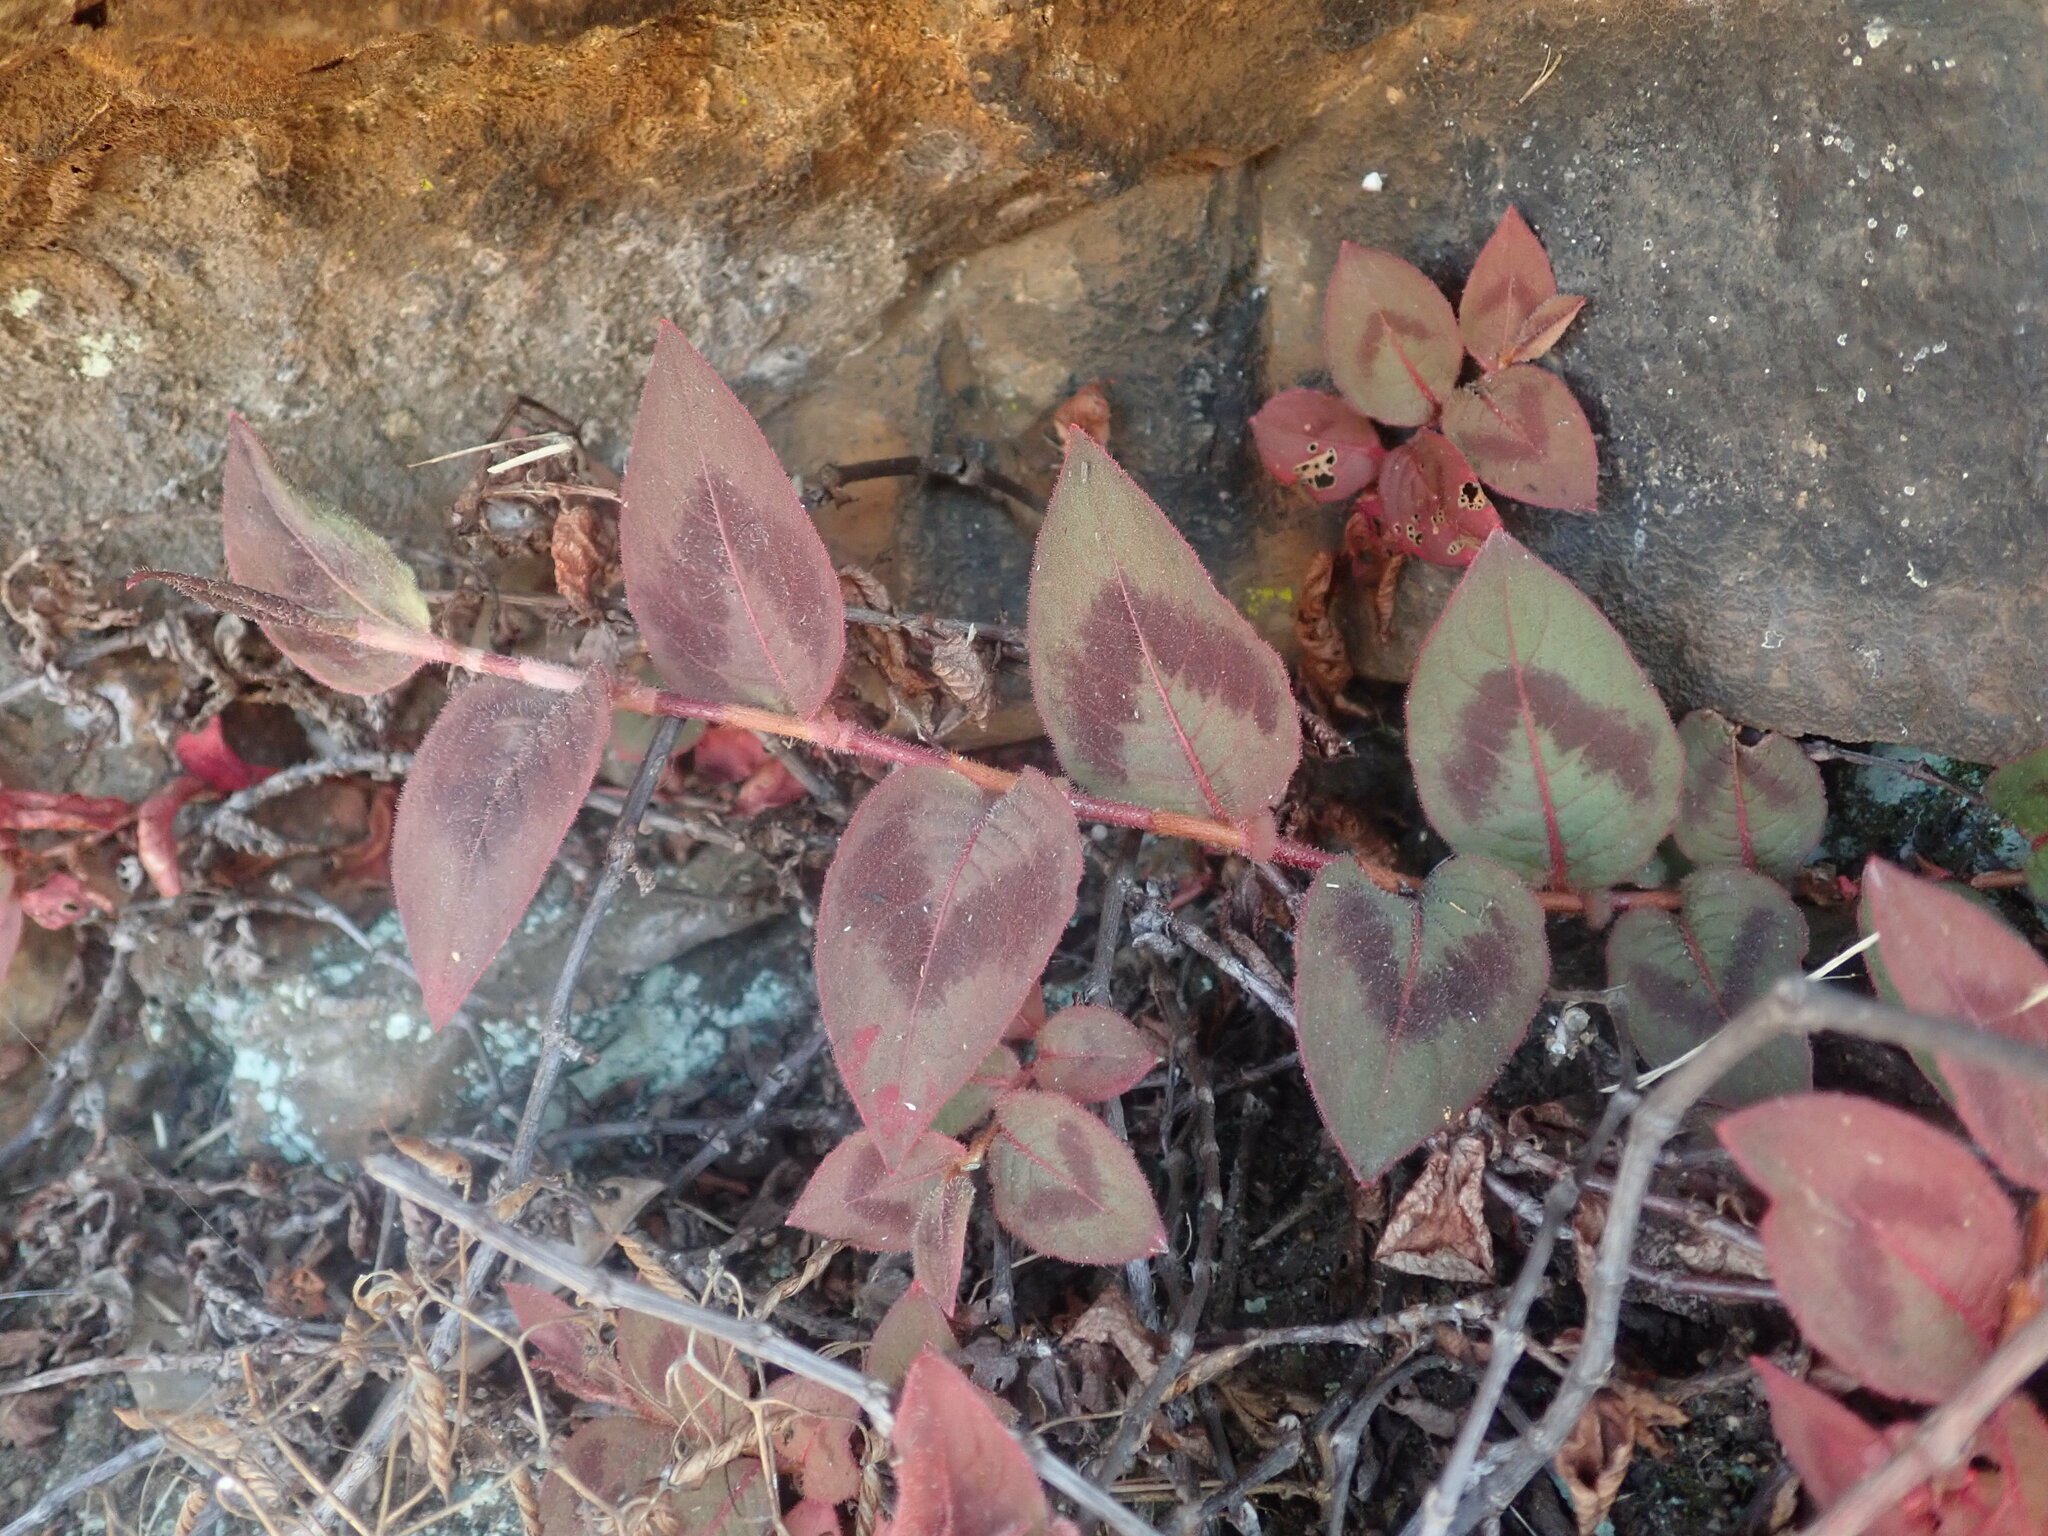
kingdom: Plantae
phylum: Tracheophyta
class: Magnoliopsida
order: Caryophyllales
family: Polygonaceae
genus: Persicaria
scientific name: Persicaria capitata
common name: Pinkhead smartweed
